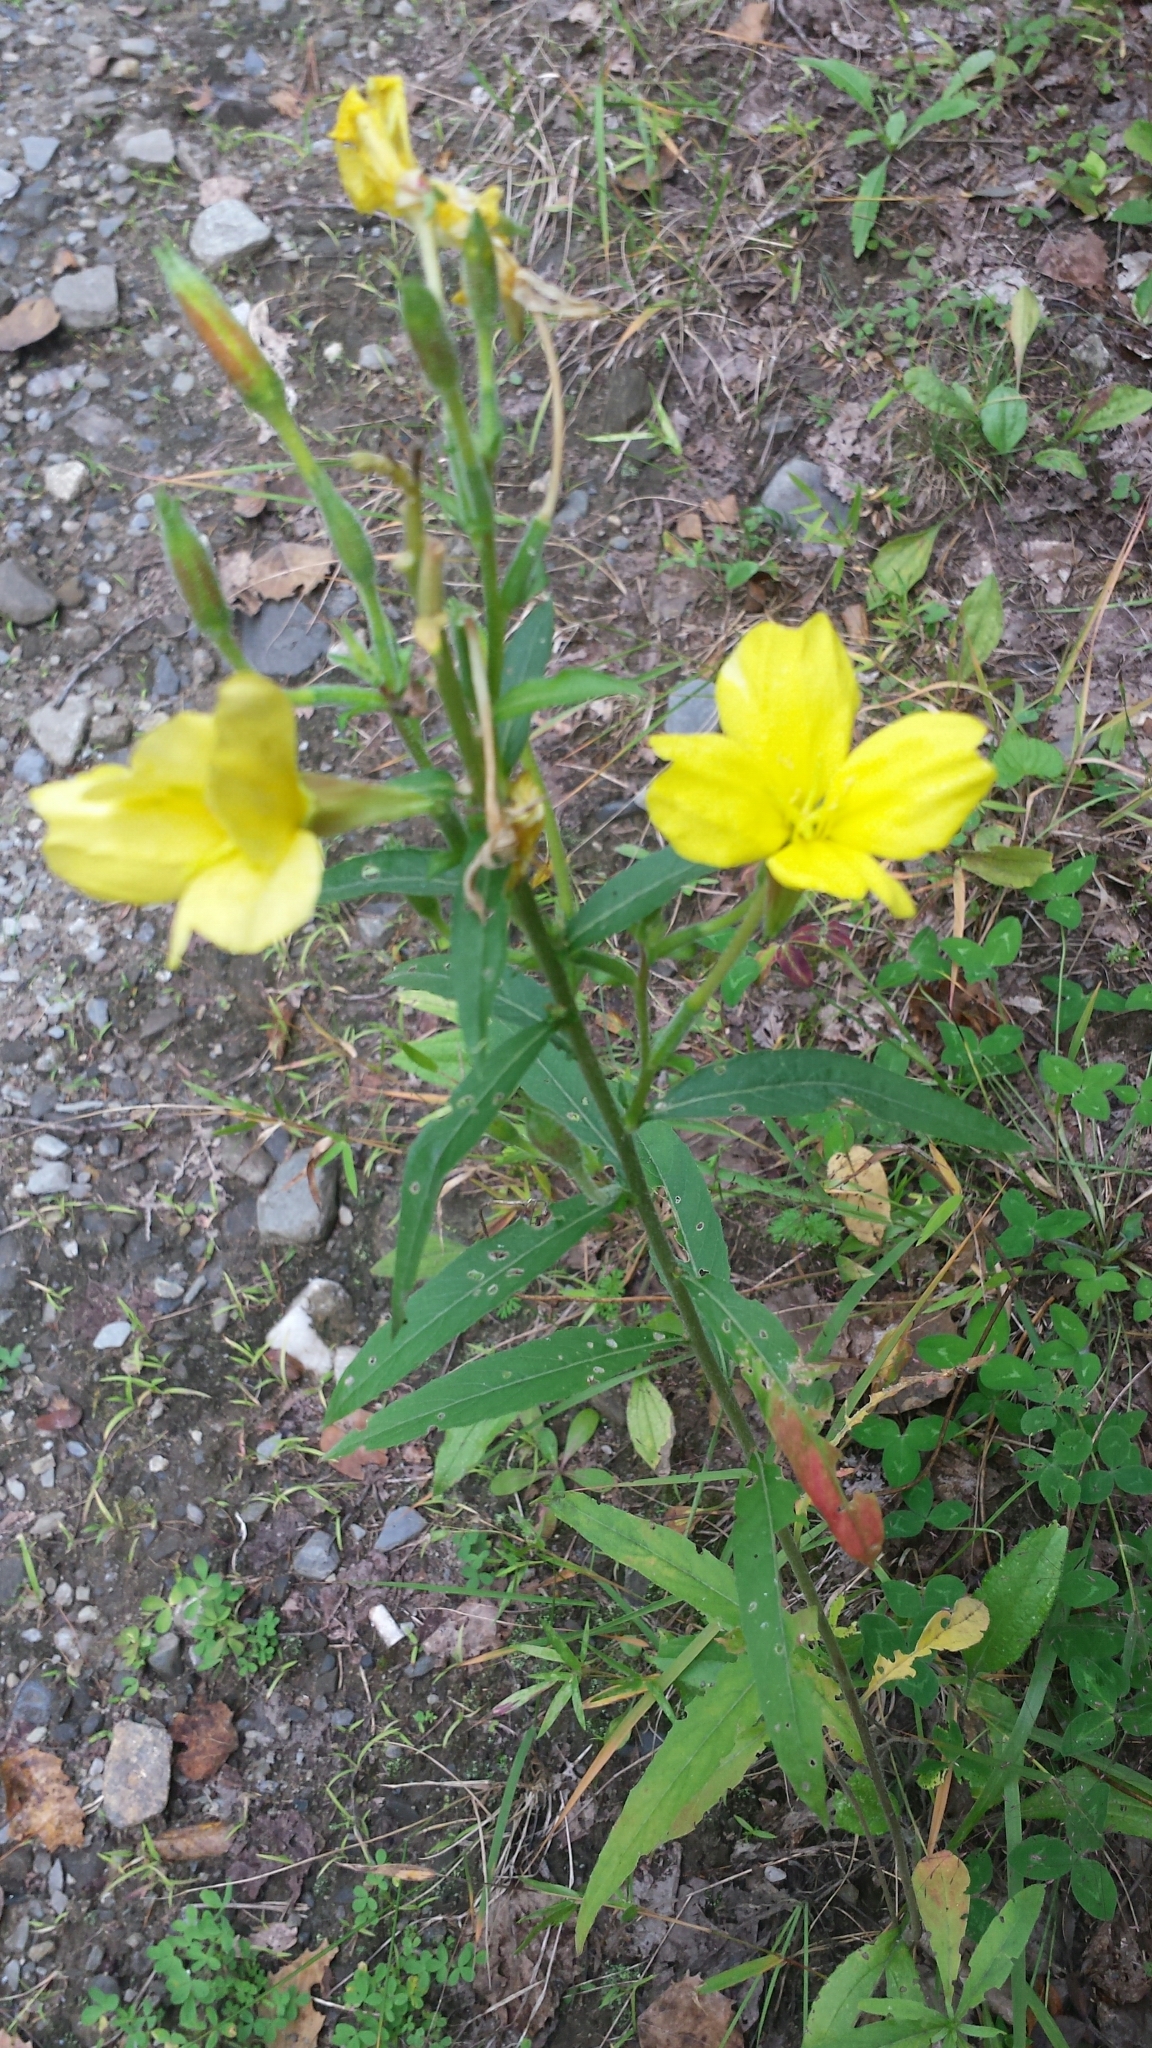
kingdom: Plantae
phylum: Tracheophyta
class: Magnoliopsida
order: Myrtales
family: Onagraceae
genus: Oenothera
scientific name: Oenothera biennis
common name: Common evening-primrose
